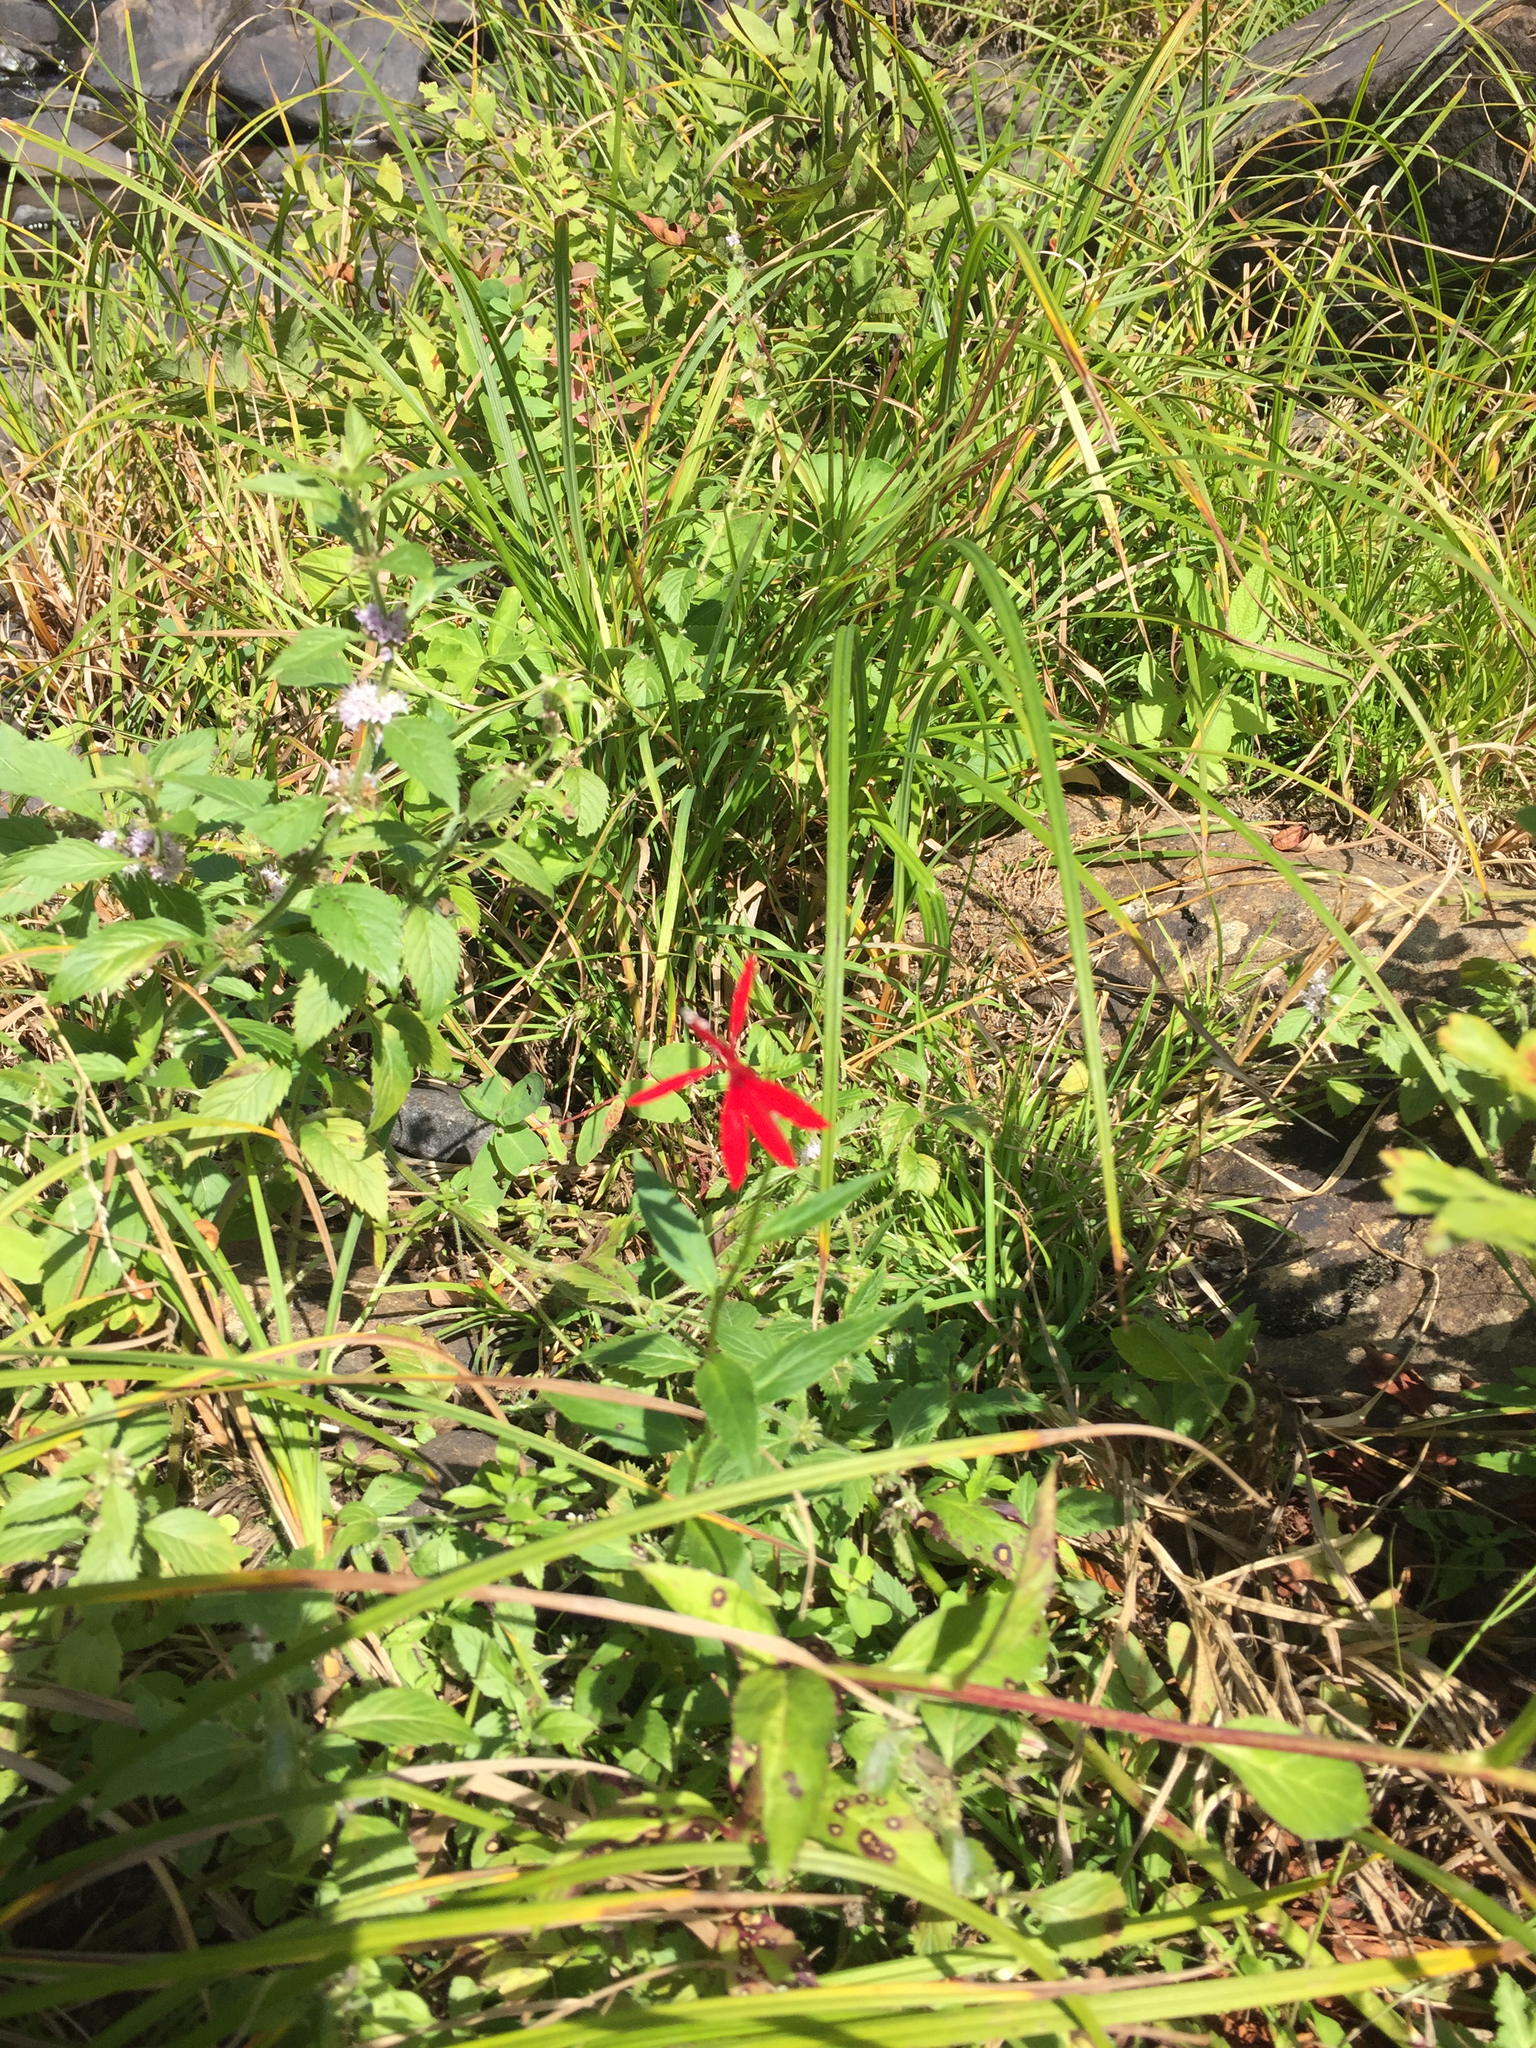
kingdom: Plantae
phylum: Tracheophyta
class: Magnoliopsida
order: Asterales
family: Campanulaceae
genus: Lobelia
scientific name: Lobelia cardinalis
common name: Cardinal flower
